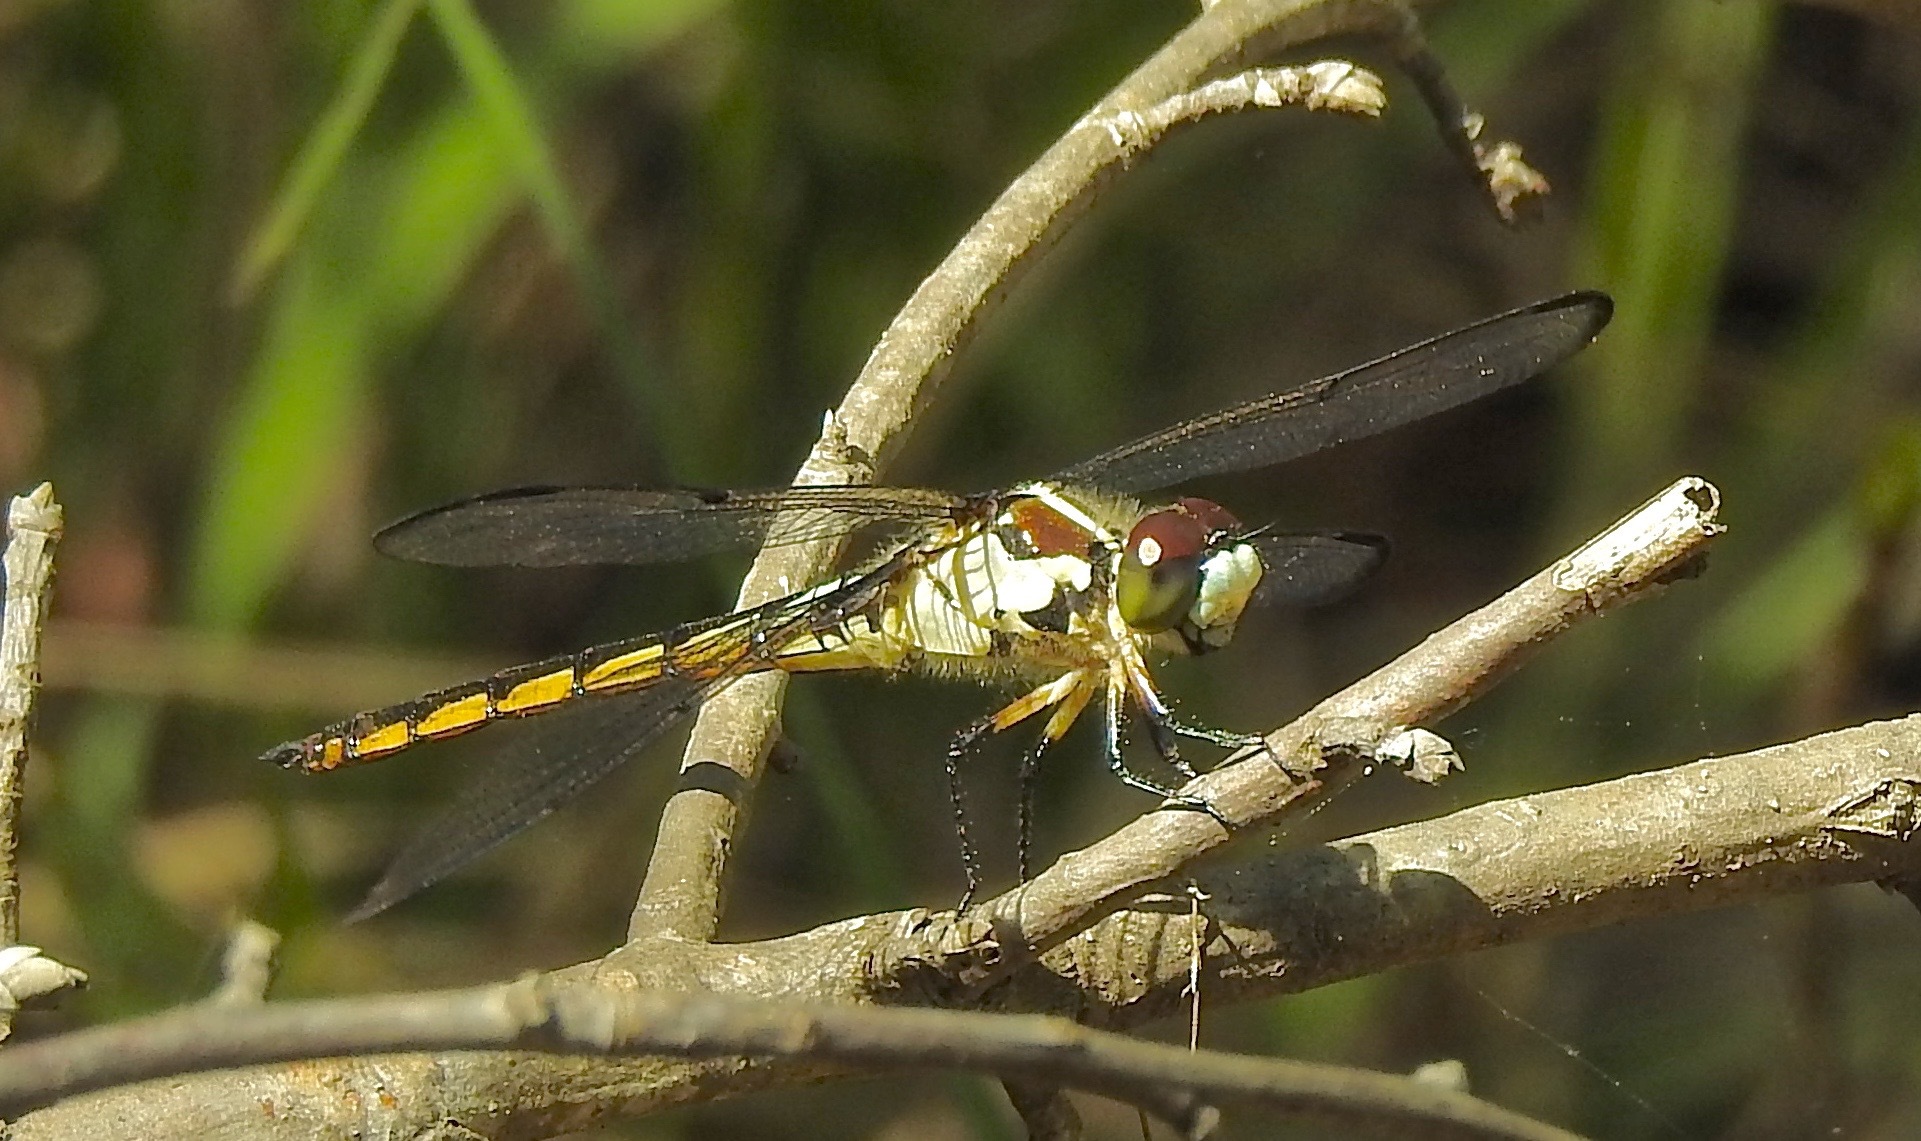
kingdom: Animalia
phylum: Arthropoda
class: Insecta
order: Odonata
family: Libellulidae
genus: Libellula
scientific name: Libellula vibrans
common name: Great blue skimmer
